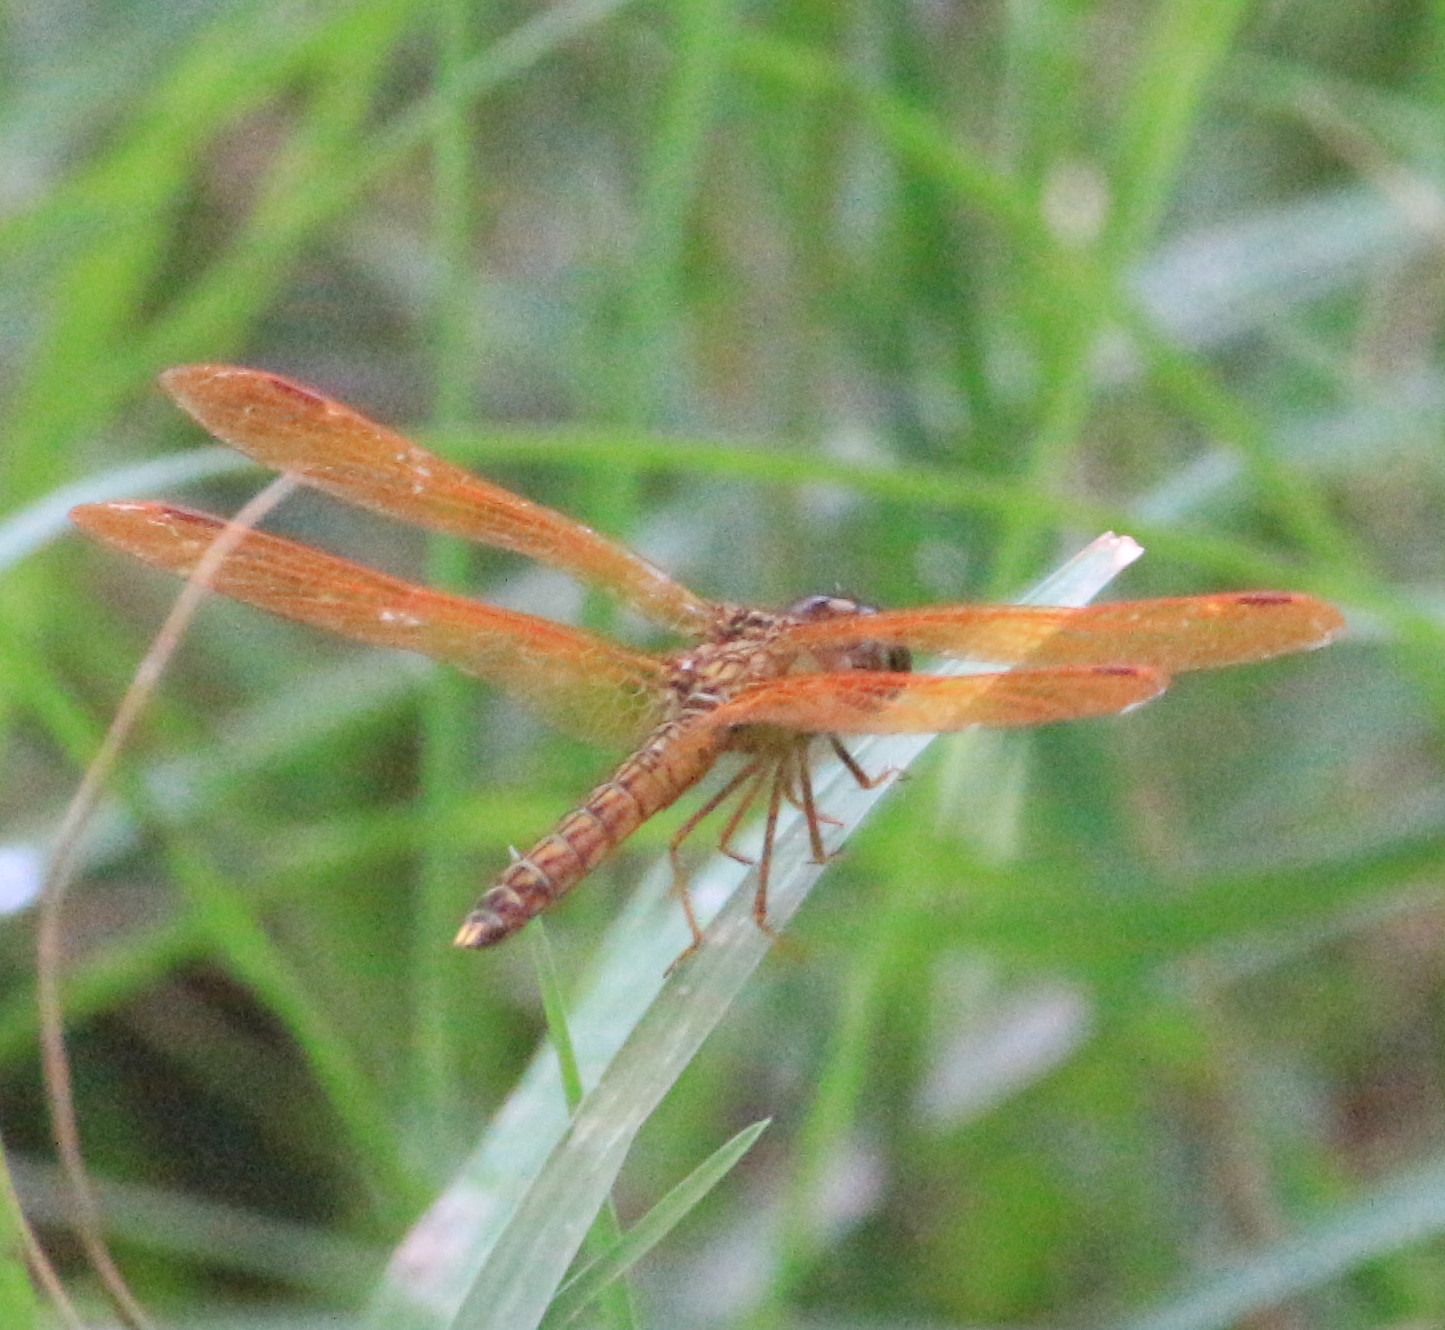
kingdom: Animalia
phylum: Arthropoda
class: Insecta
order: Odonata
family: Libellulidae
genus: Perithemis
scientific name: Perithemis tenera
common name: Eastern amberwing
